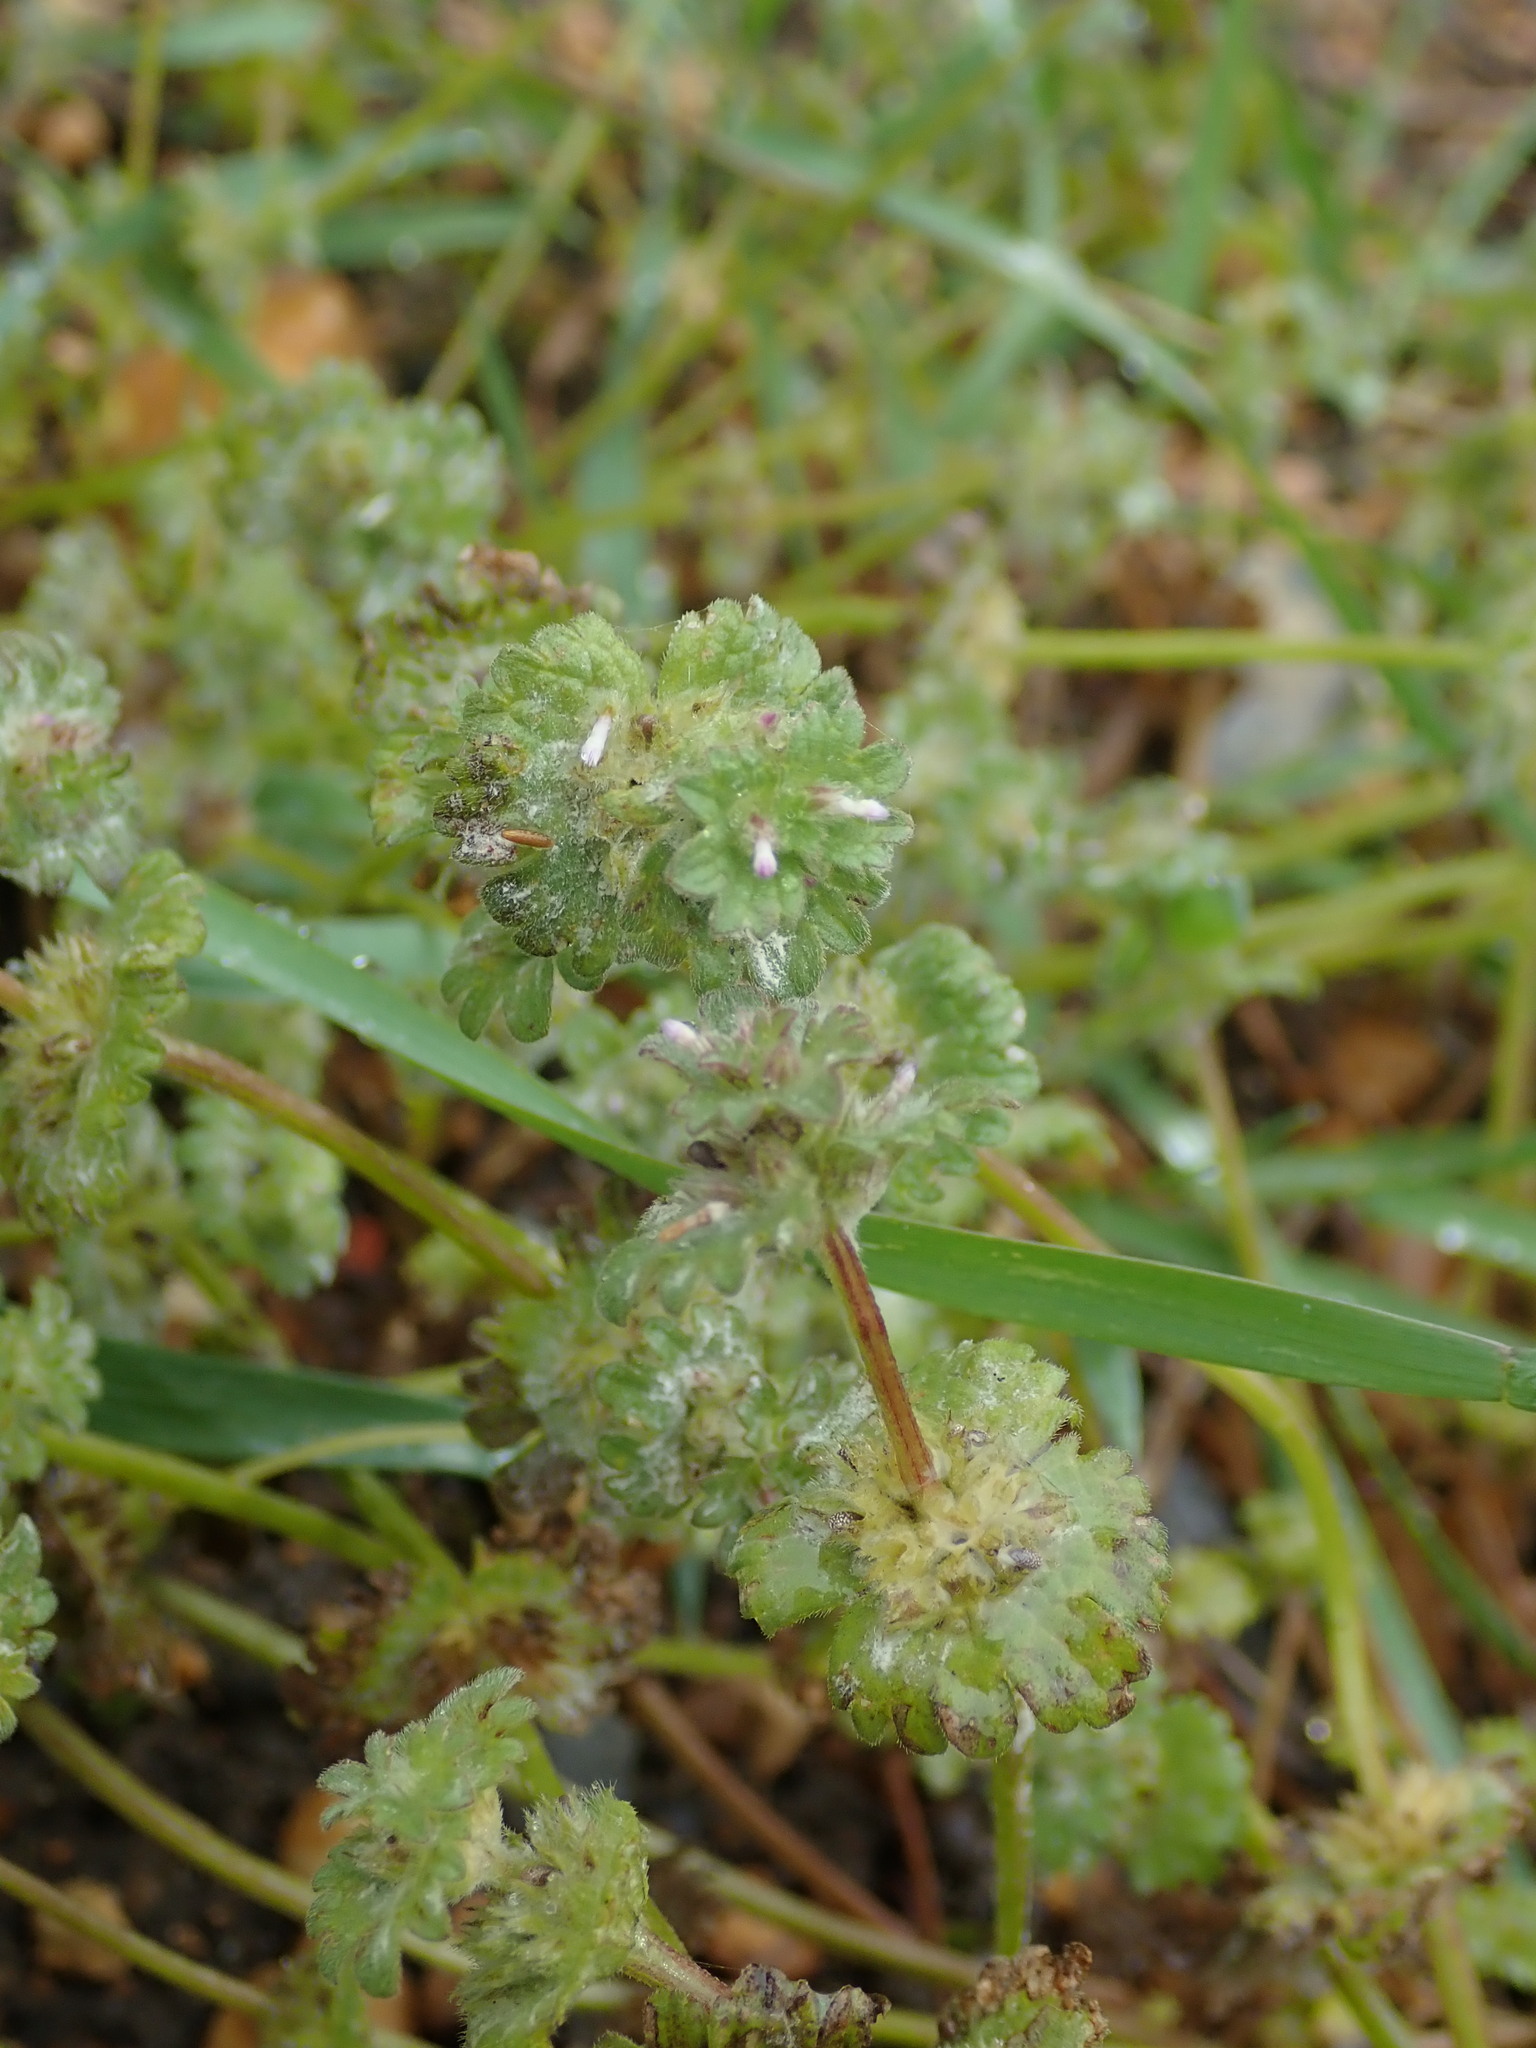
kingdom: Plantae
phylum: Tracheophyta
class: Magnoliopsida
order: Lamiales
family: Lamiaceae
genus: Lamium
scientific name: Lamium amplexicaule
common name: Henbit dead-nettle
